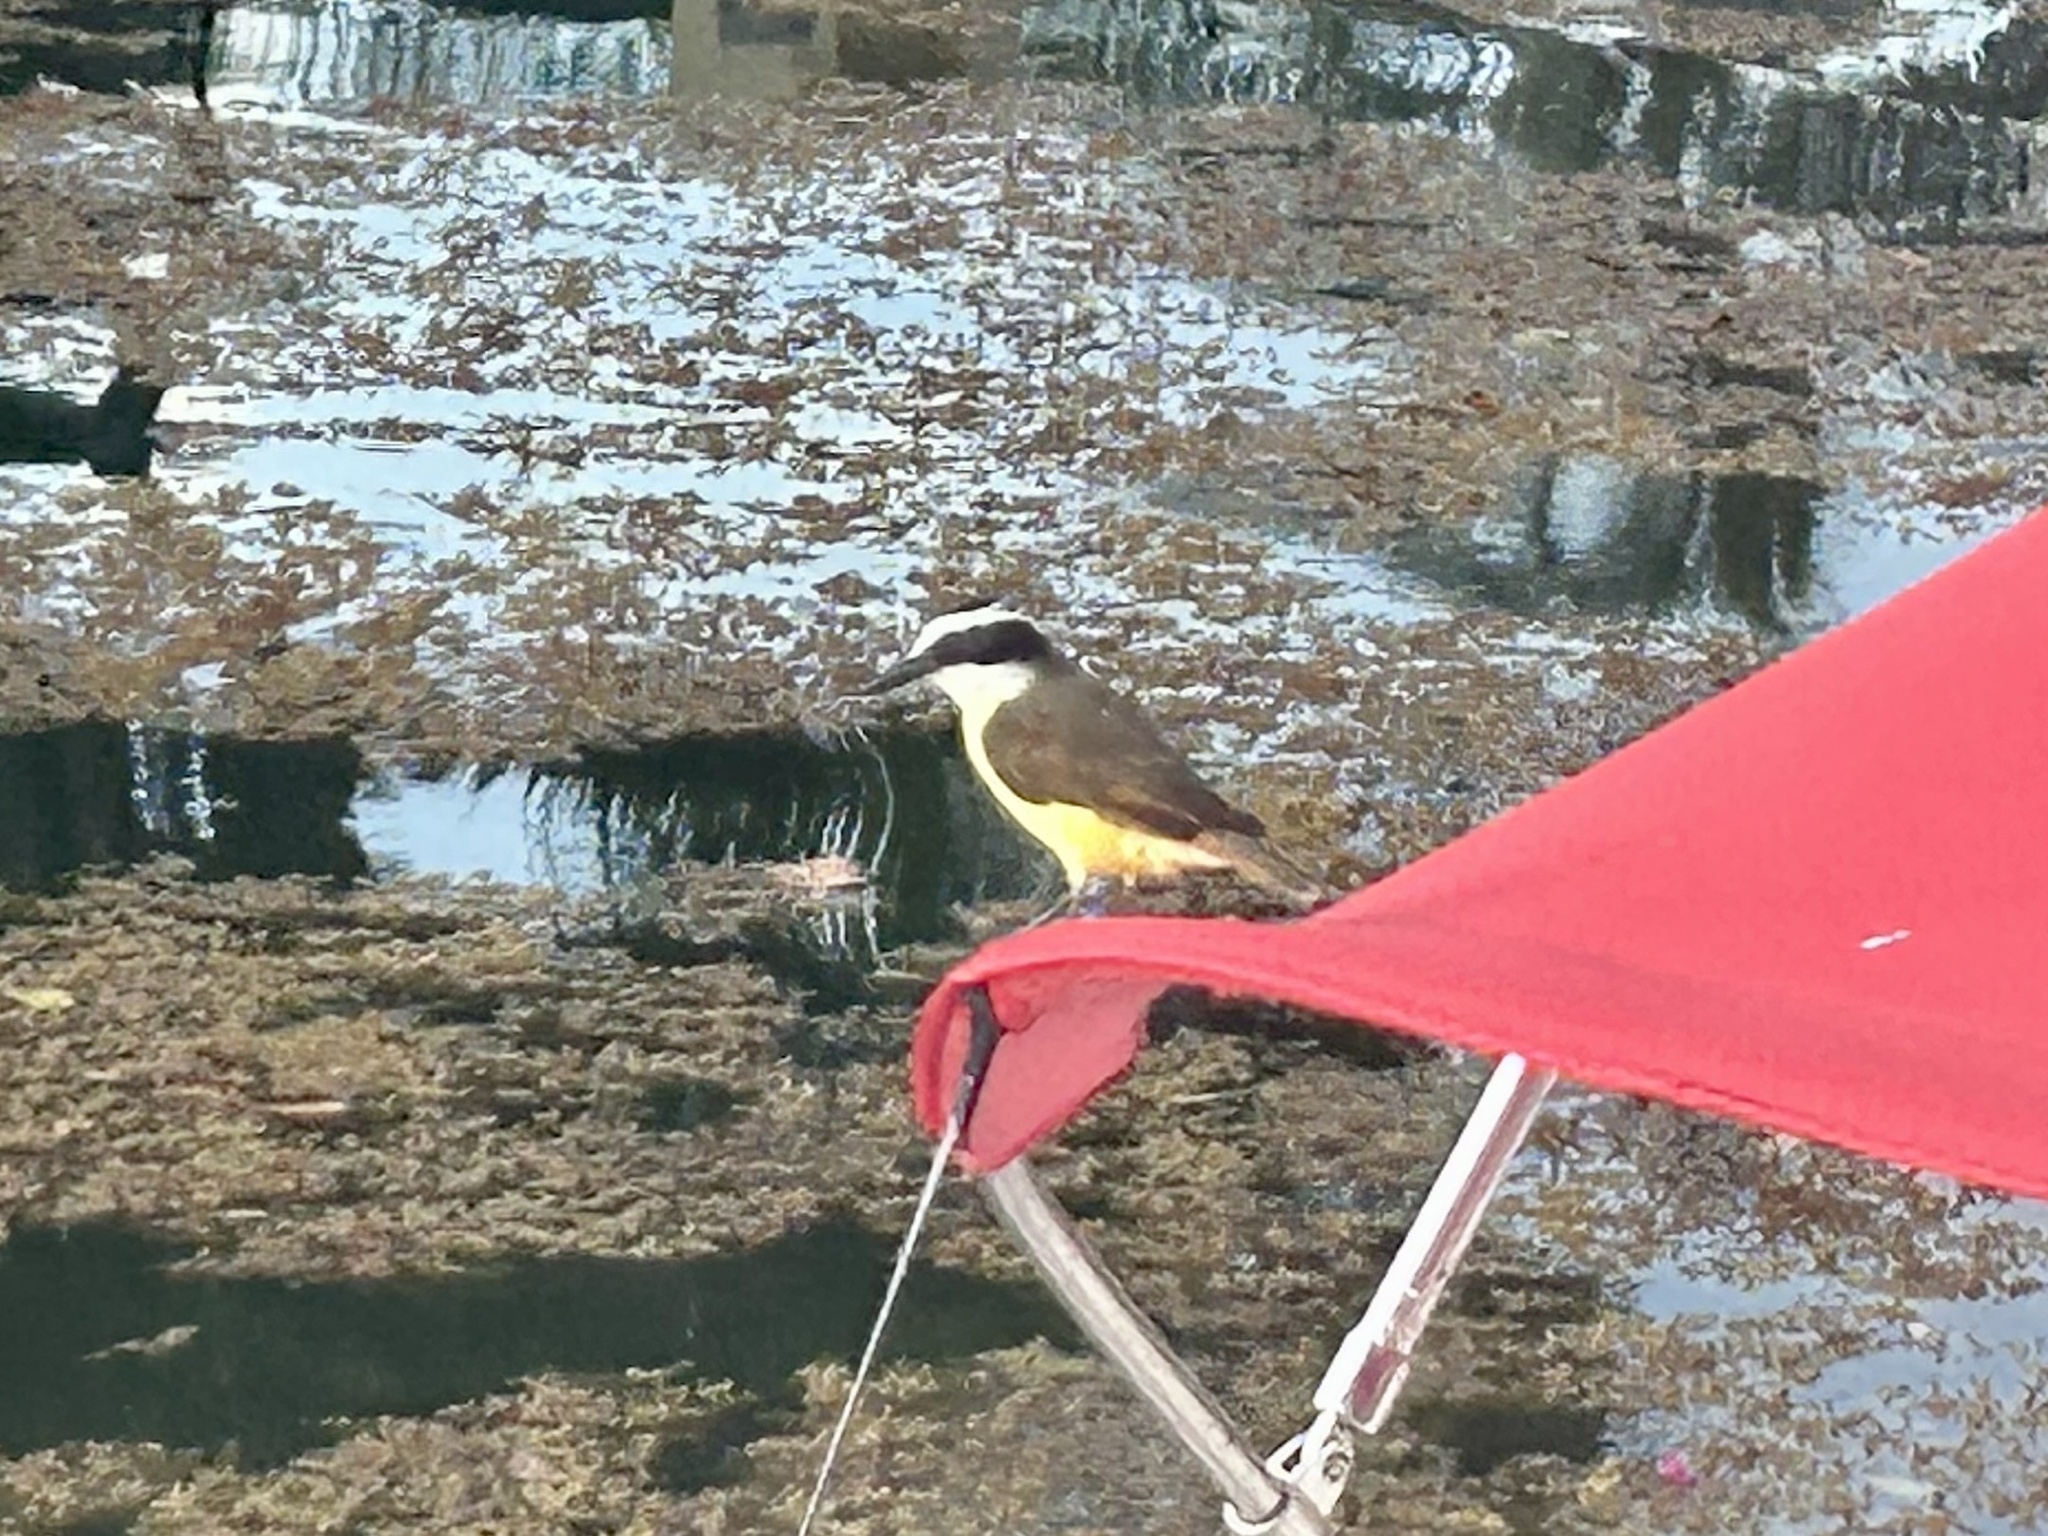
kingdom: Animalia
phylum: Chordata
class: Aves
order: Passeriformes
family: Tyrannidae
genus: Pitangus
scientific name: Pitangus sulphuratus
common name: Great kiskadee
